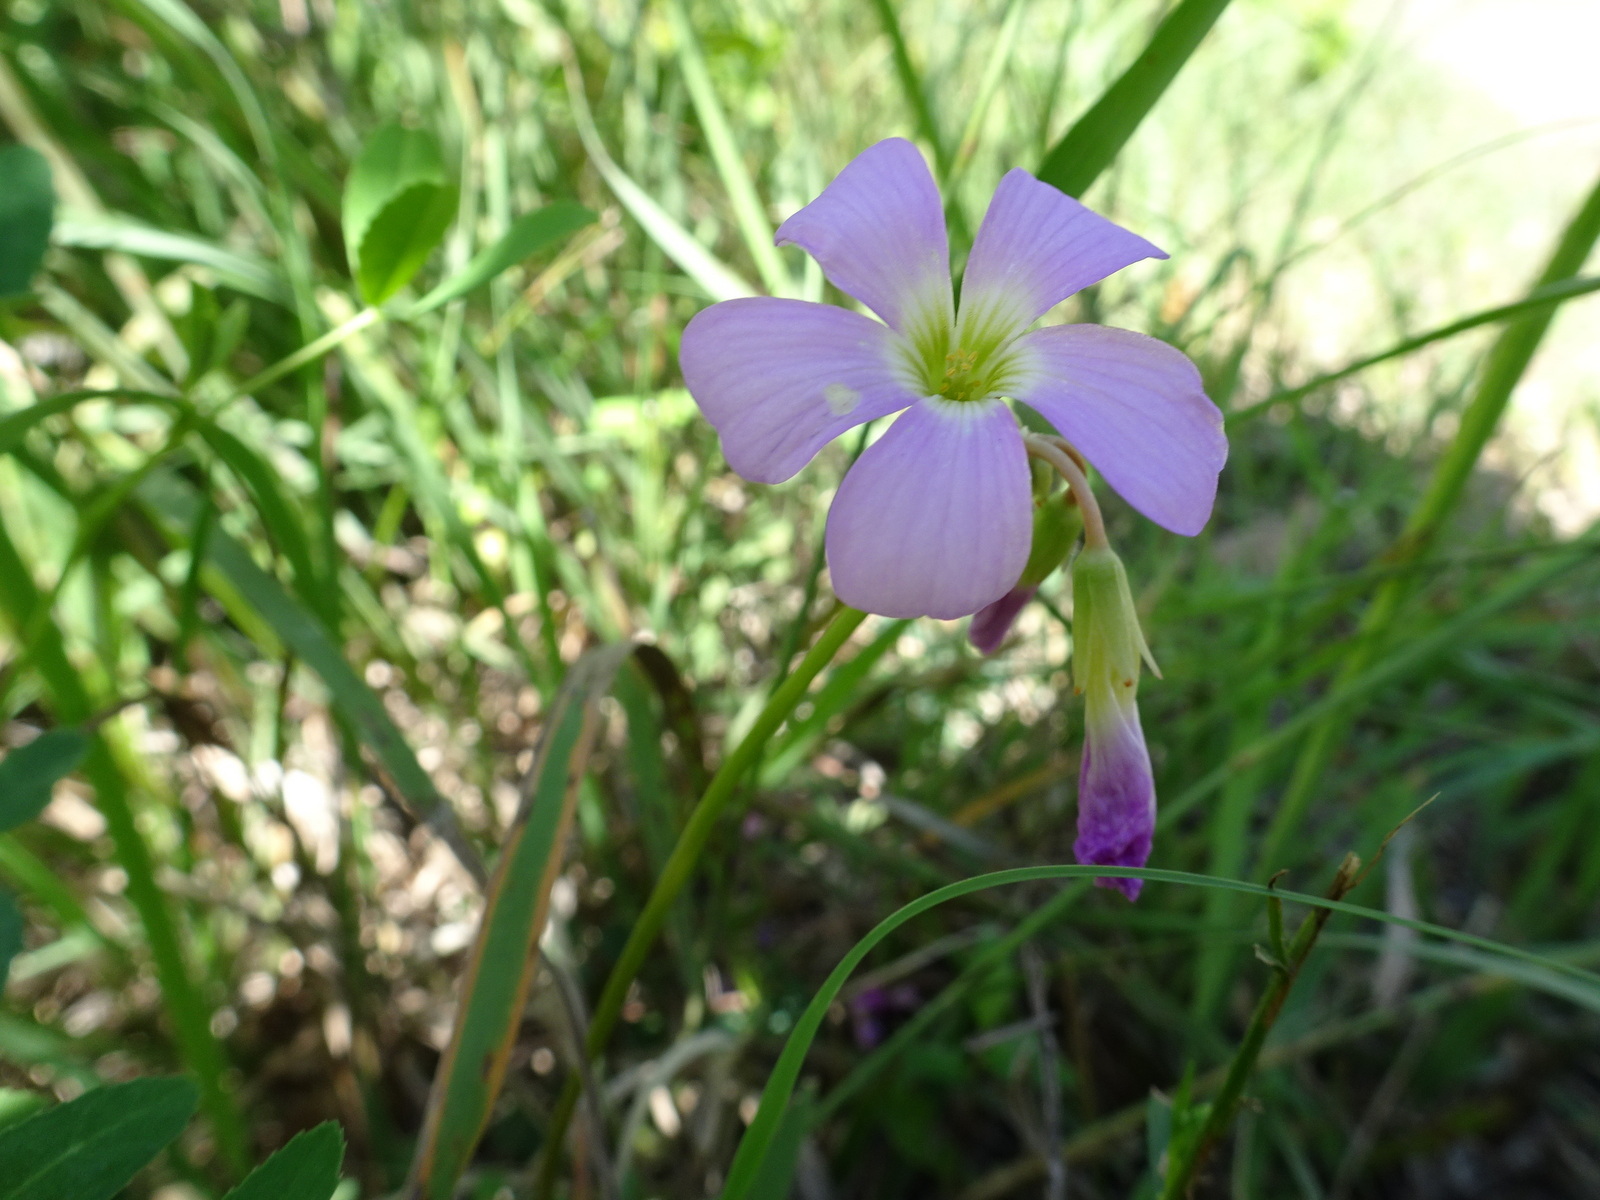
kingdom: Plantae
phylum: Tracheophyta
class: Magnoliopsida
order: Oxalidales
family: Oxalidaceae
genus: Oxalis
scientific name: Oxalis violacea
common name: Violet wood-sorrel
